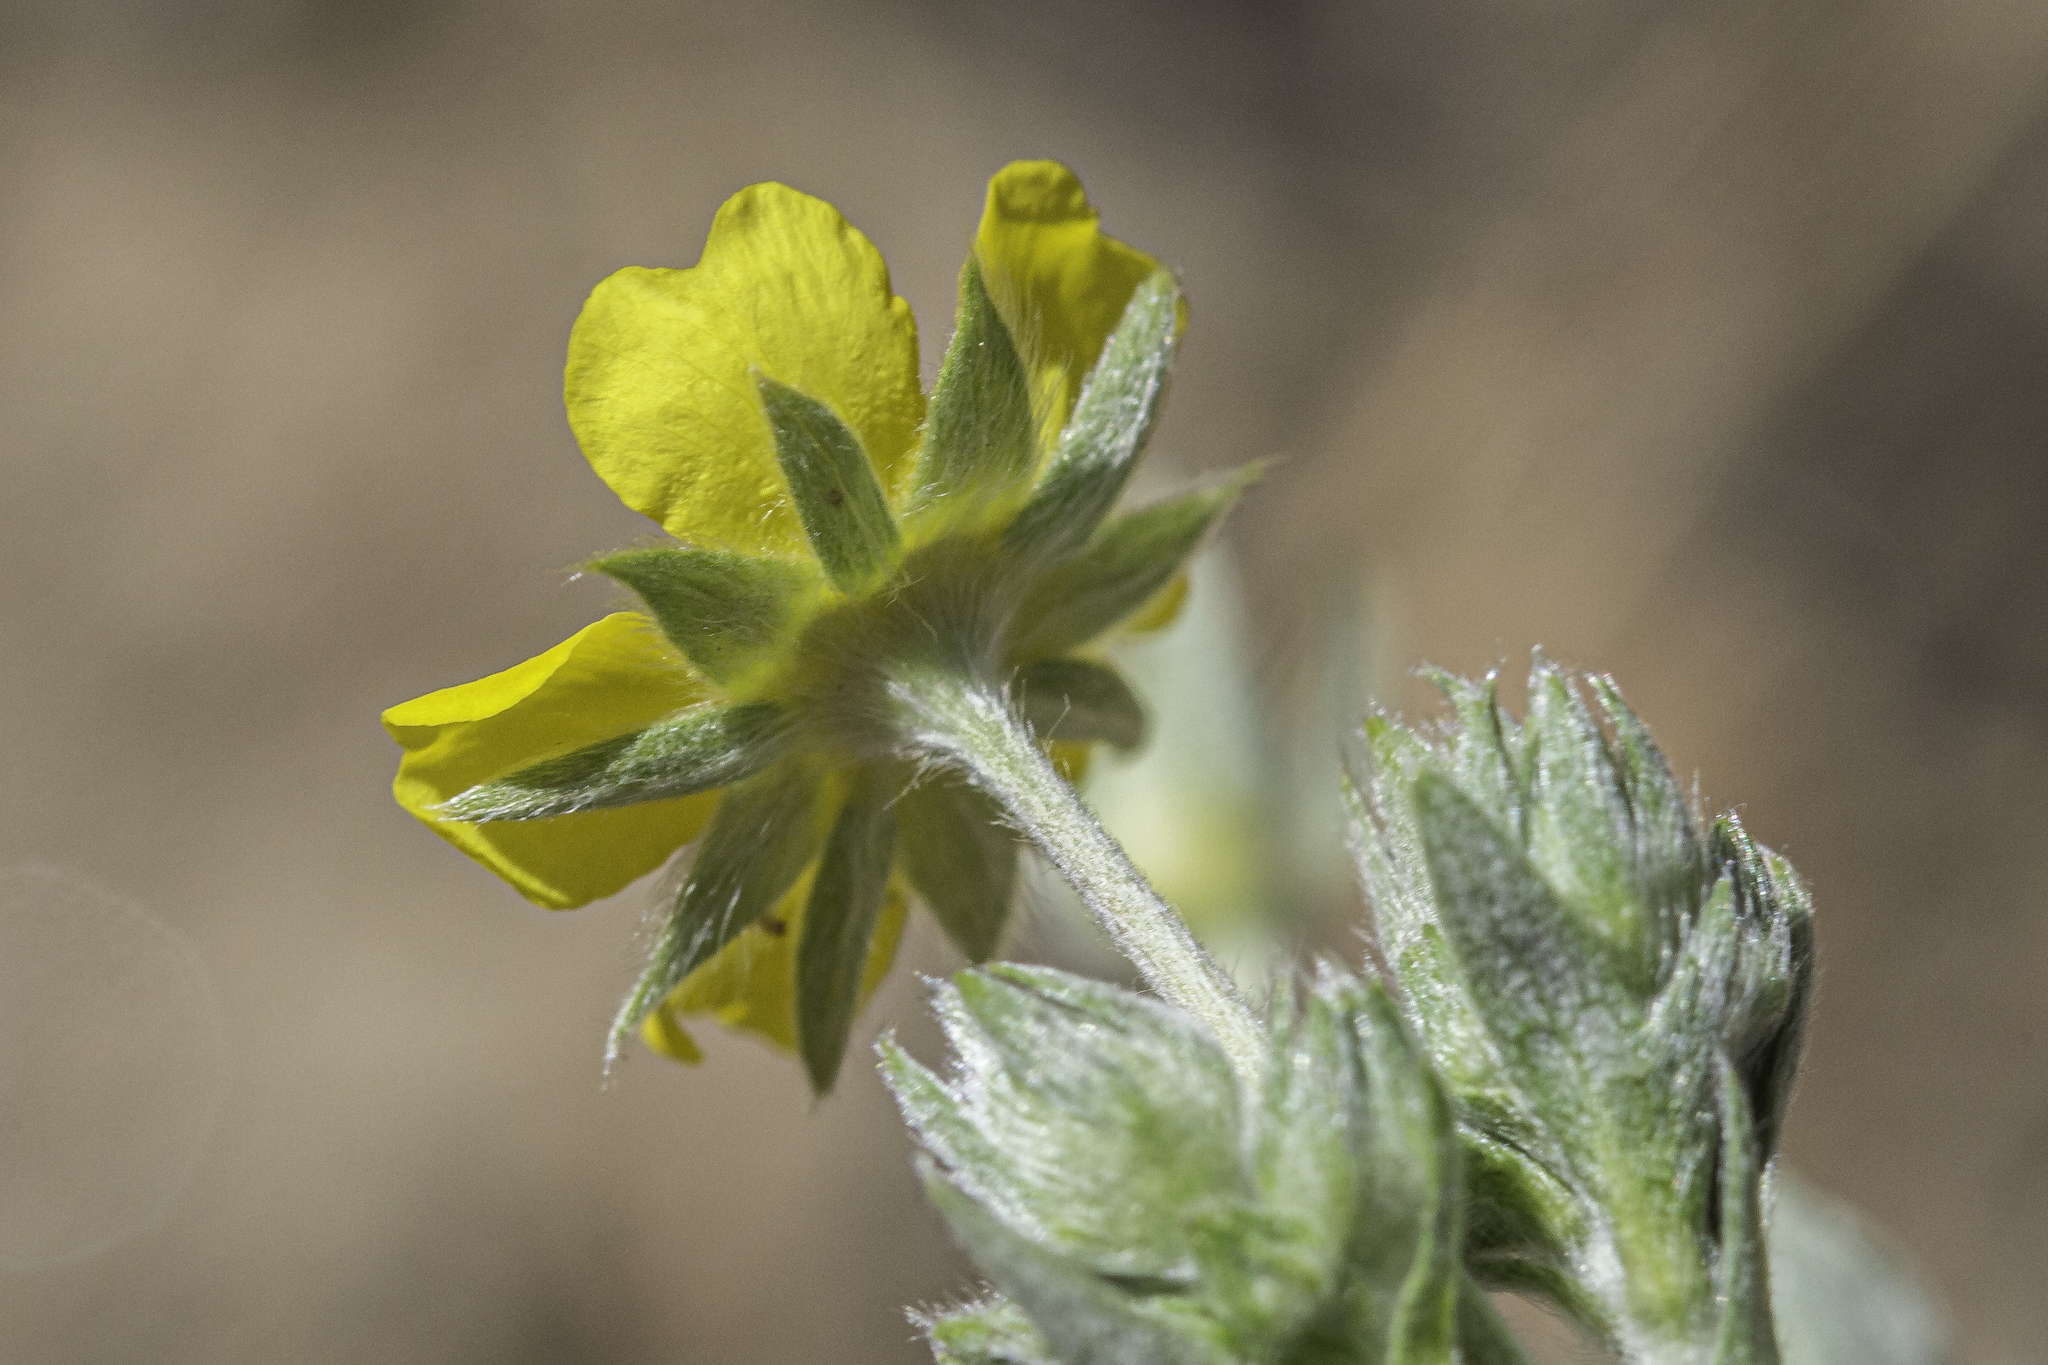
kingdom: Plantae
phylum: Tracheophyta
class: Magnoliopsida
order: Rosales
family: Rosaceae
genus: Potentilla
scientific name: Potentilla hippiana
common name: Woolly cinquefoil
